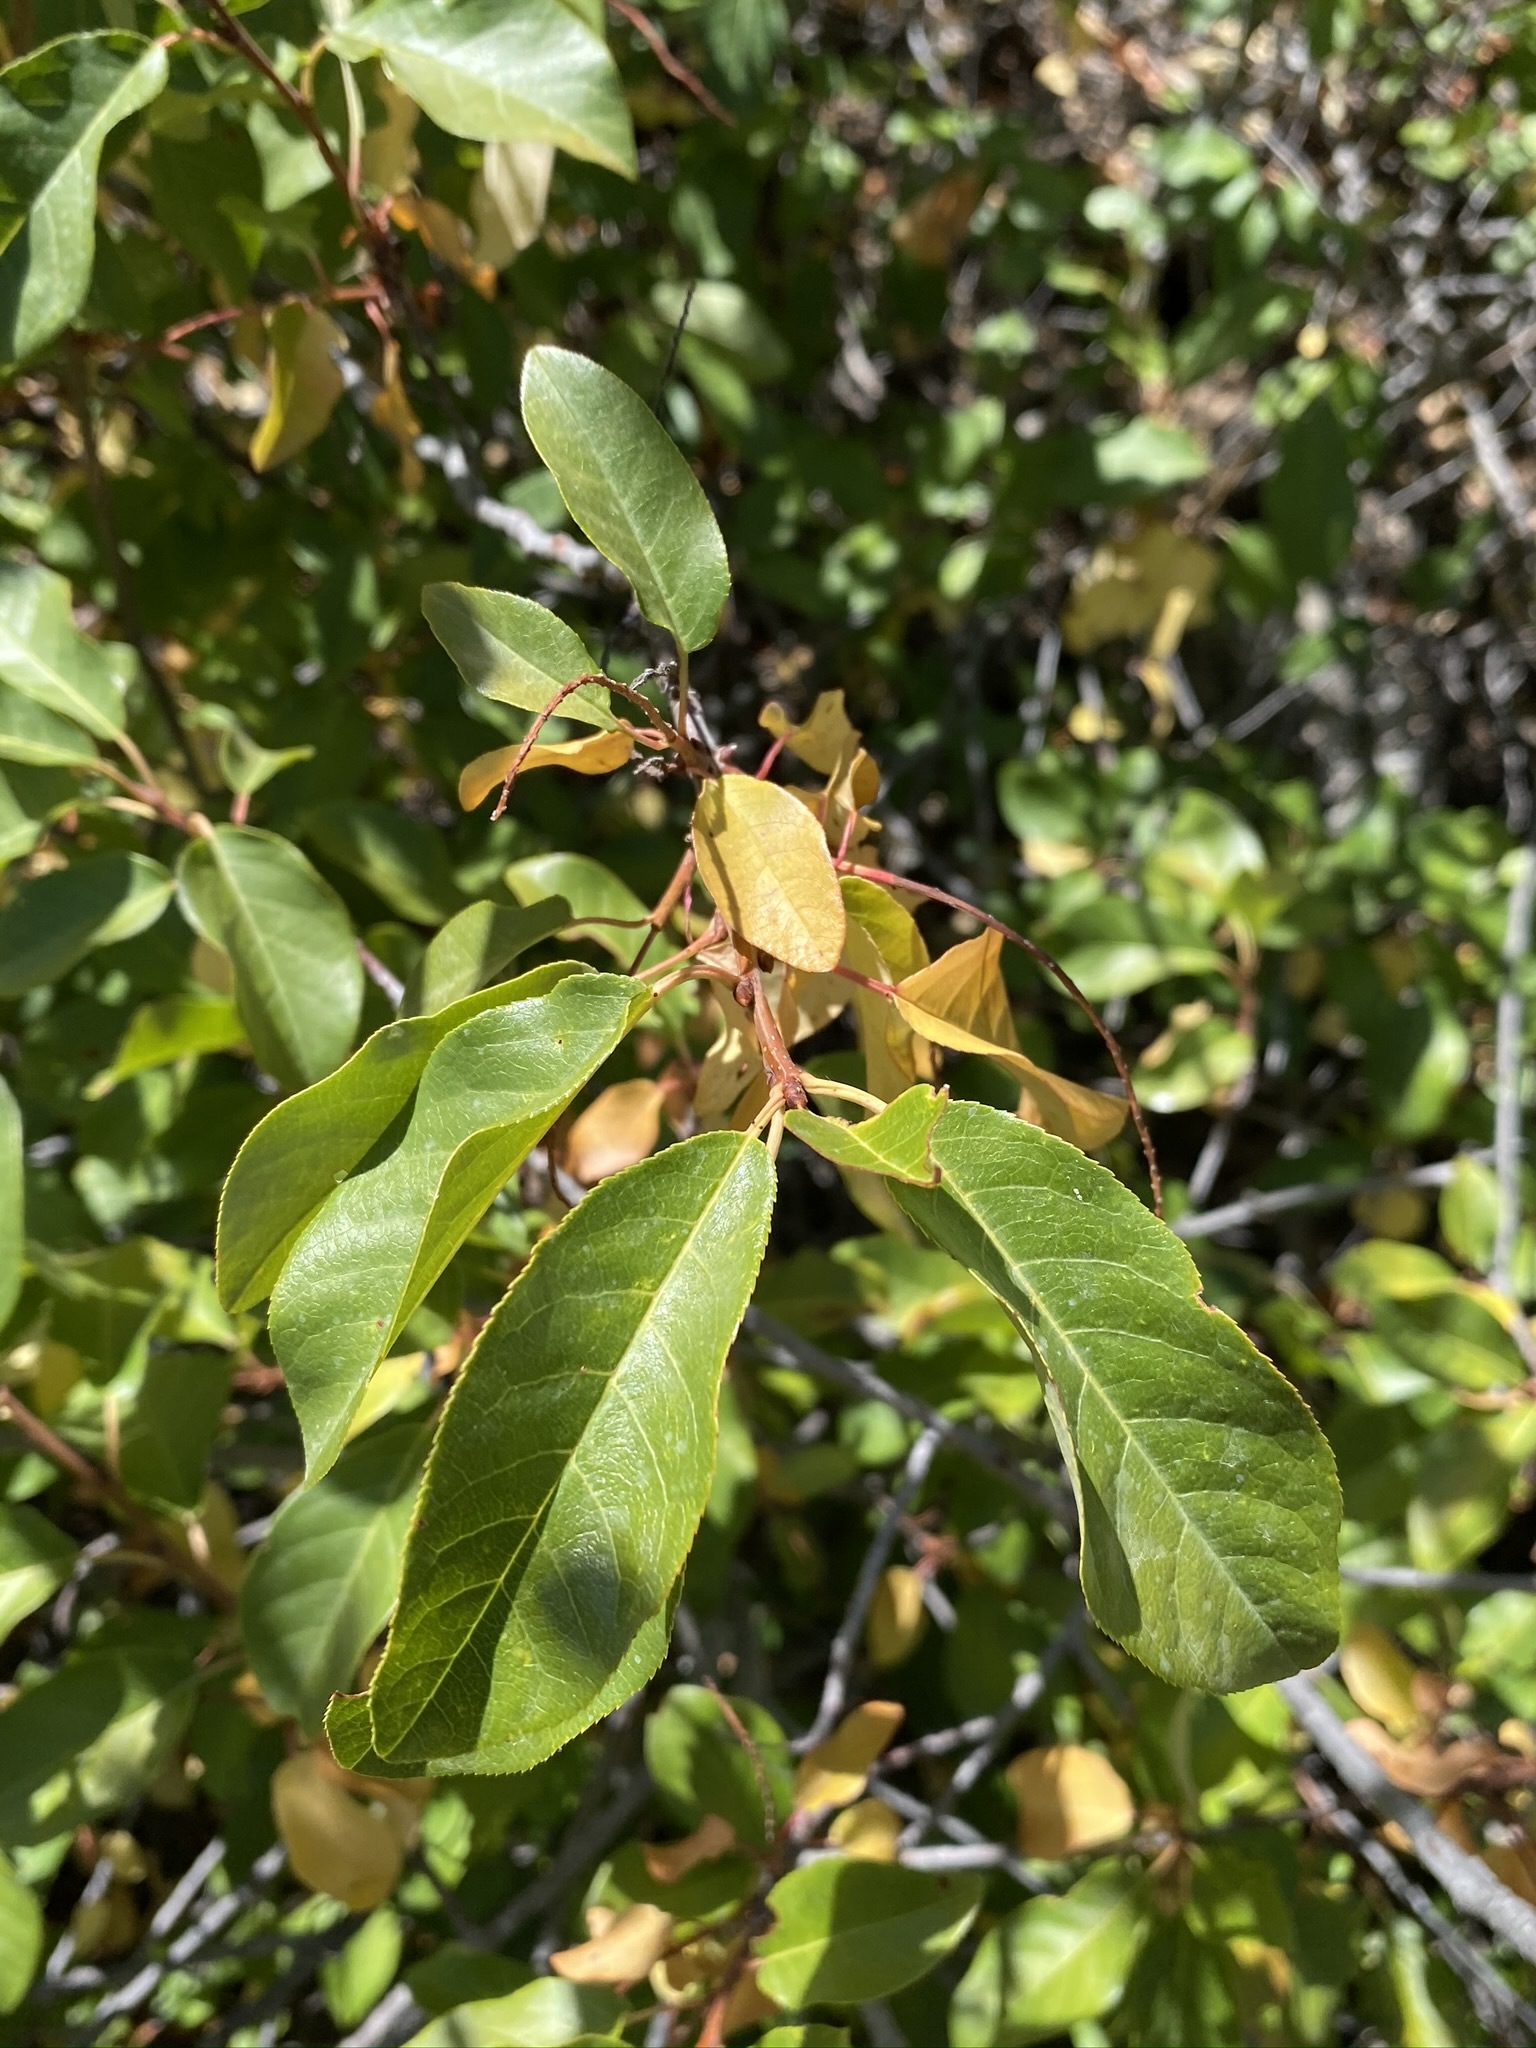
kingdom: Plantae
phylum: Tracheophyta
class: Magnoliopsida
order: Rosales
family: Rosaceae
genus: Prunus
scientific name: Prunus virginiana
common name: Chokecherry
